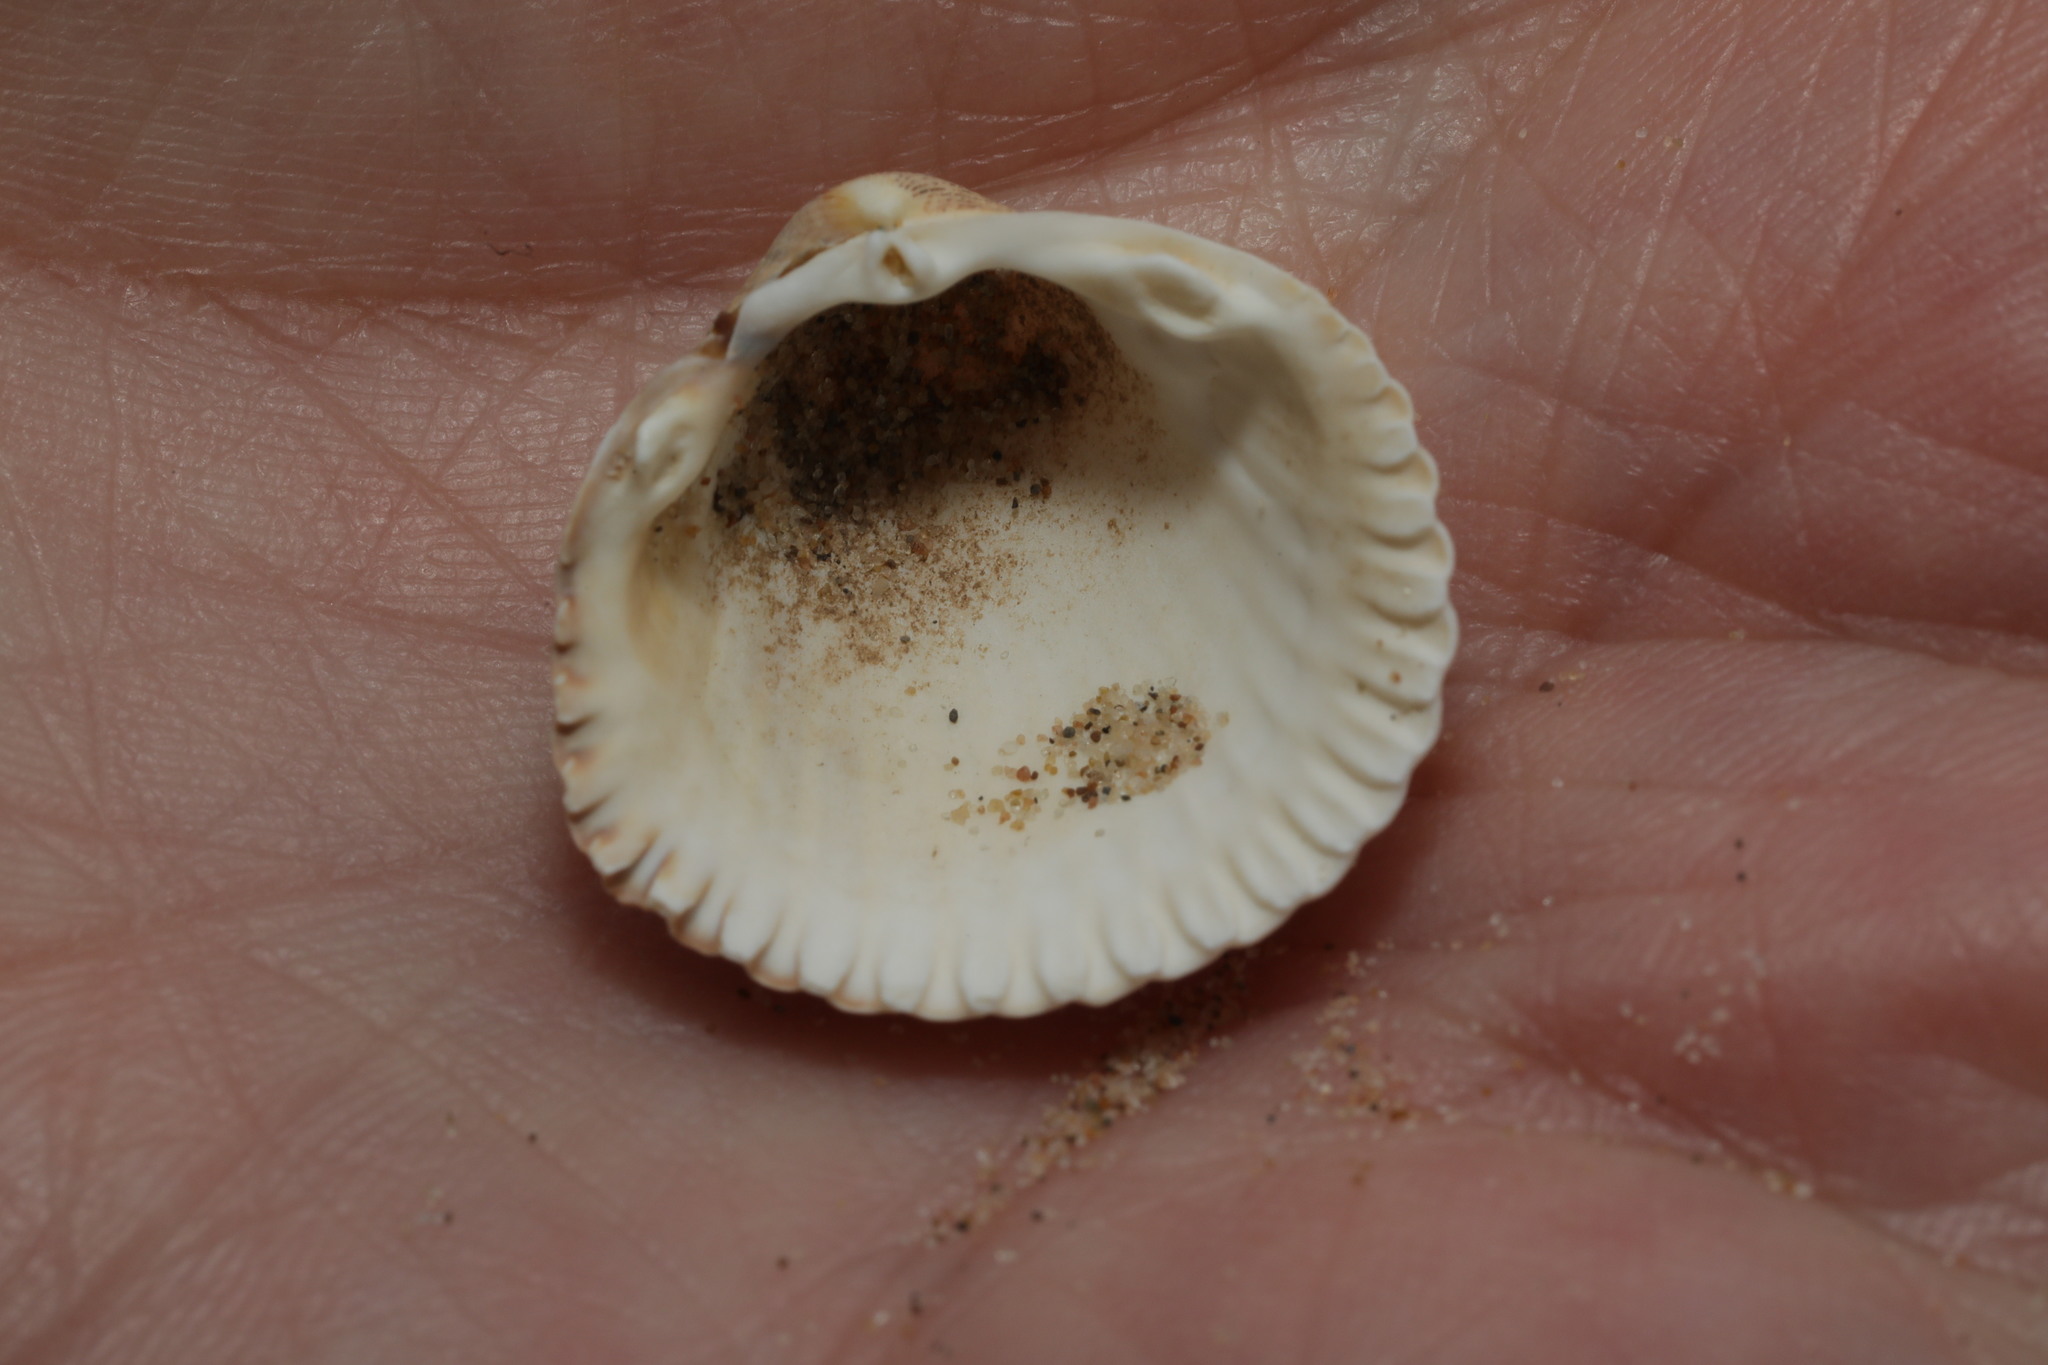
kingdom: Animalia
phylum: Mollusca
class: Bivalvia
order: Cardiida
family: Cardiidae
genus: Cerastoderma
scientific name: Cerastoderma edule
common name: Common cockle
